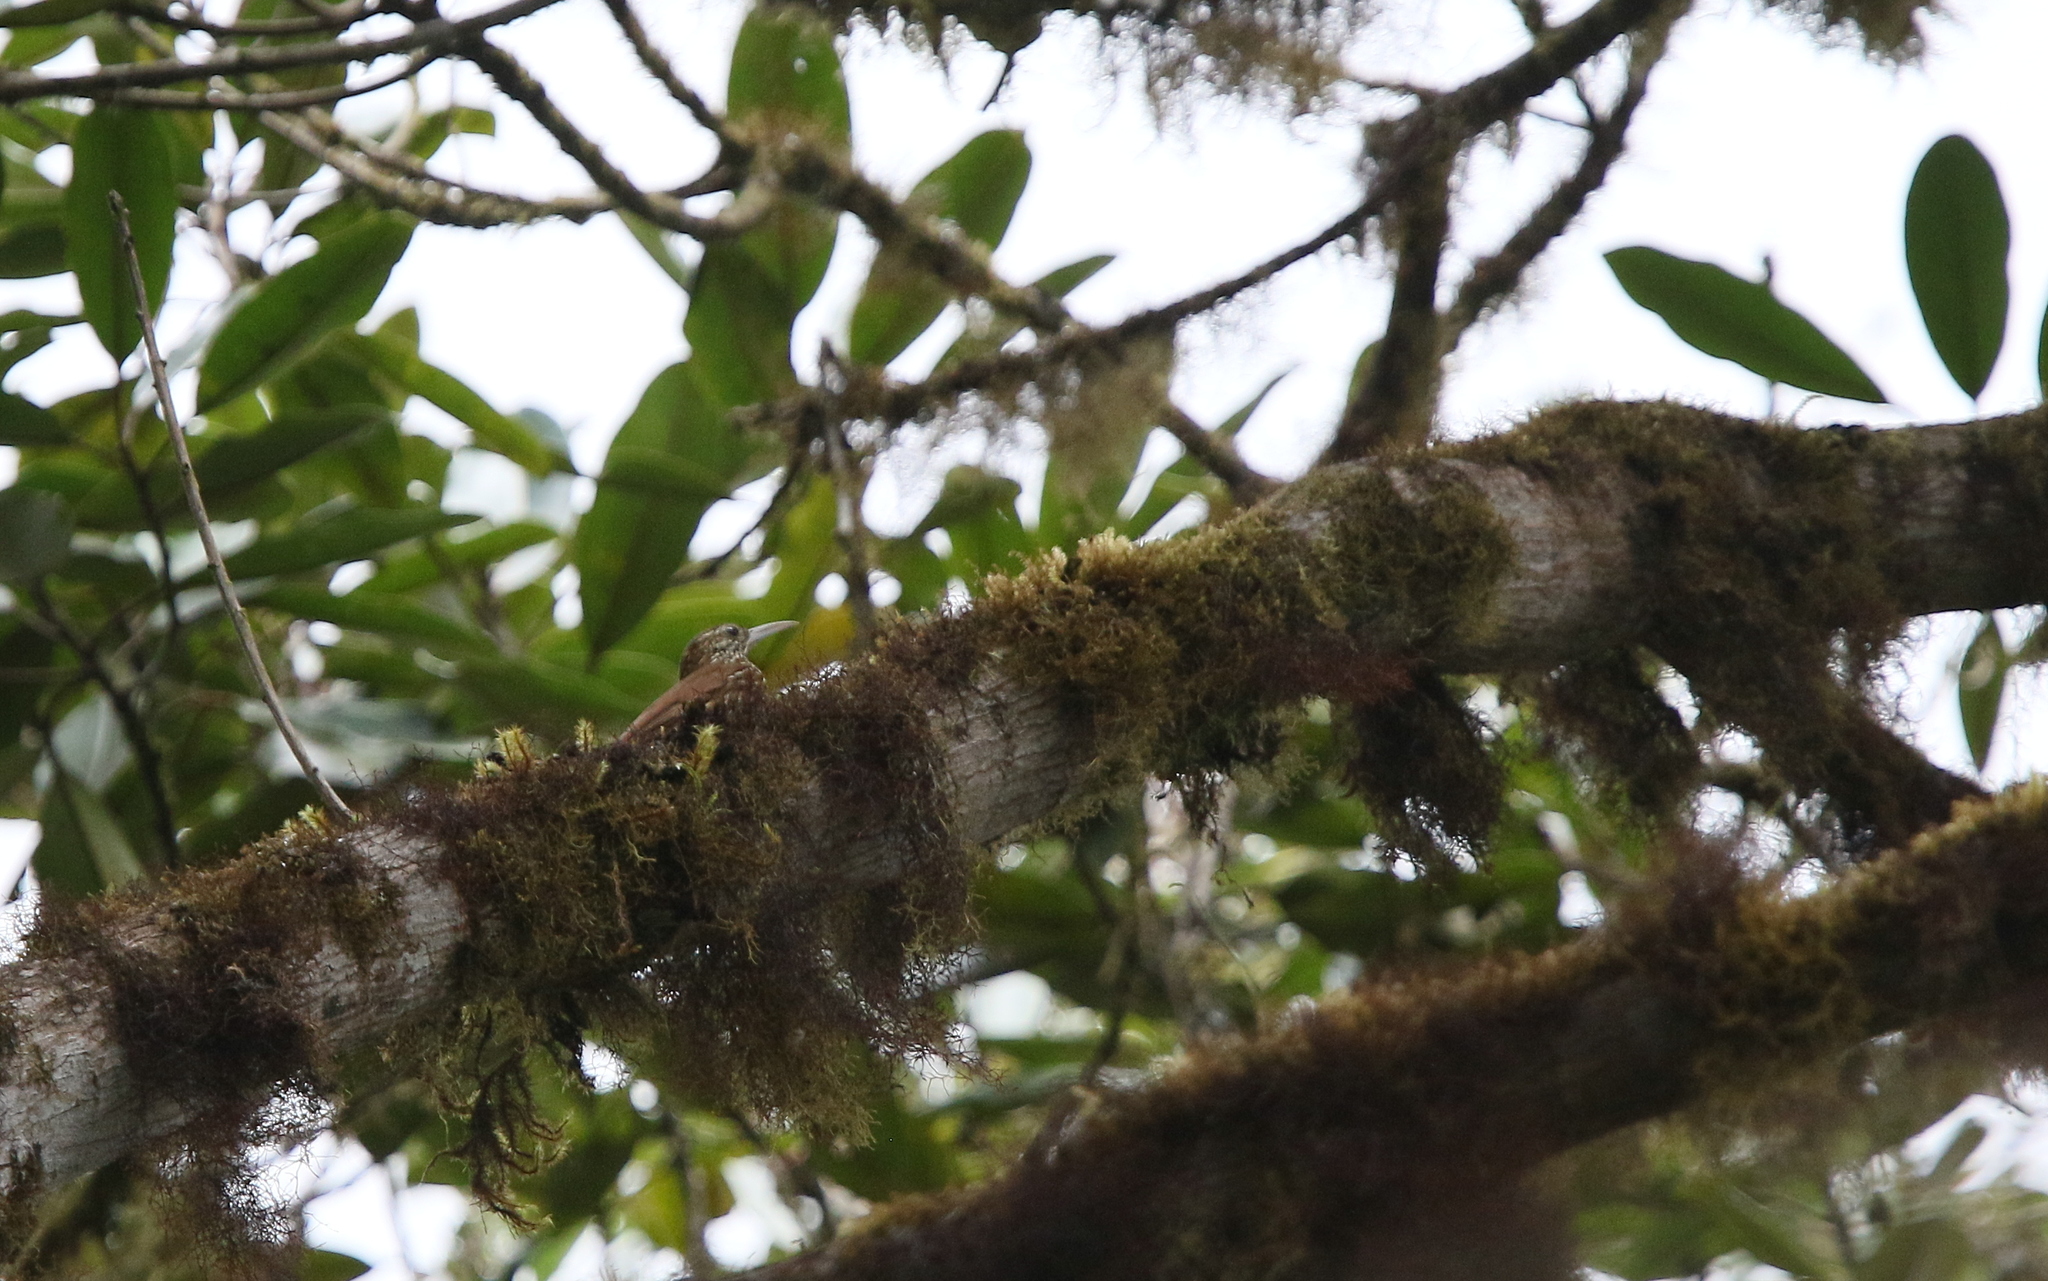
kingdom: Animalia
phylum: Chordata
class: Aves
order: Passeriformes
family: Furnariidae
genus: Lepidocolaptes
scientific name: Lepidocolaptes lacrymiger
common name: Montane woodcreeper
